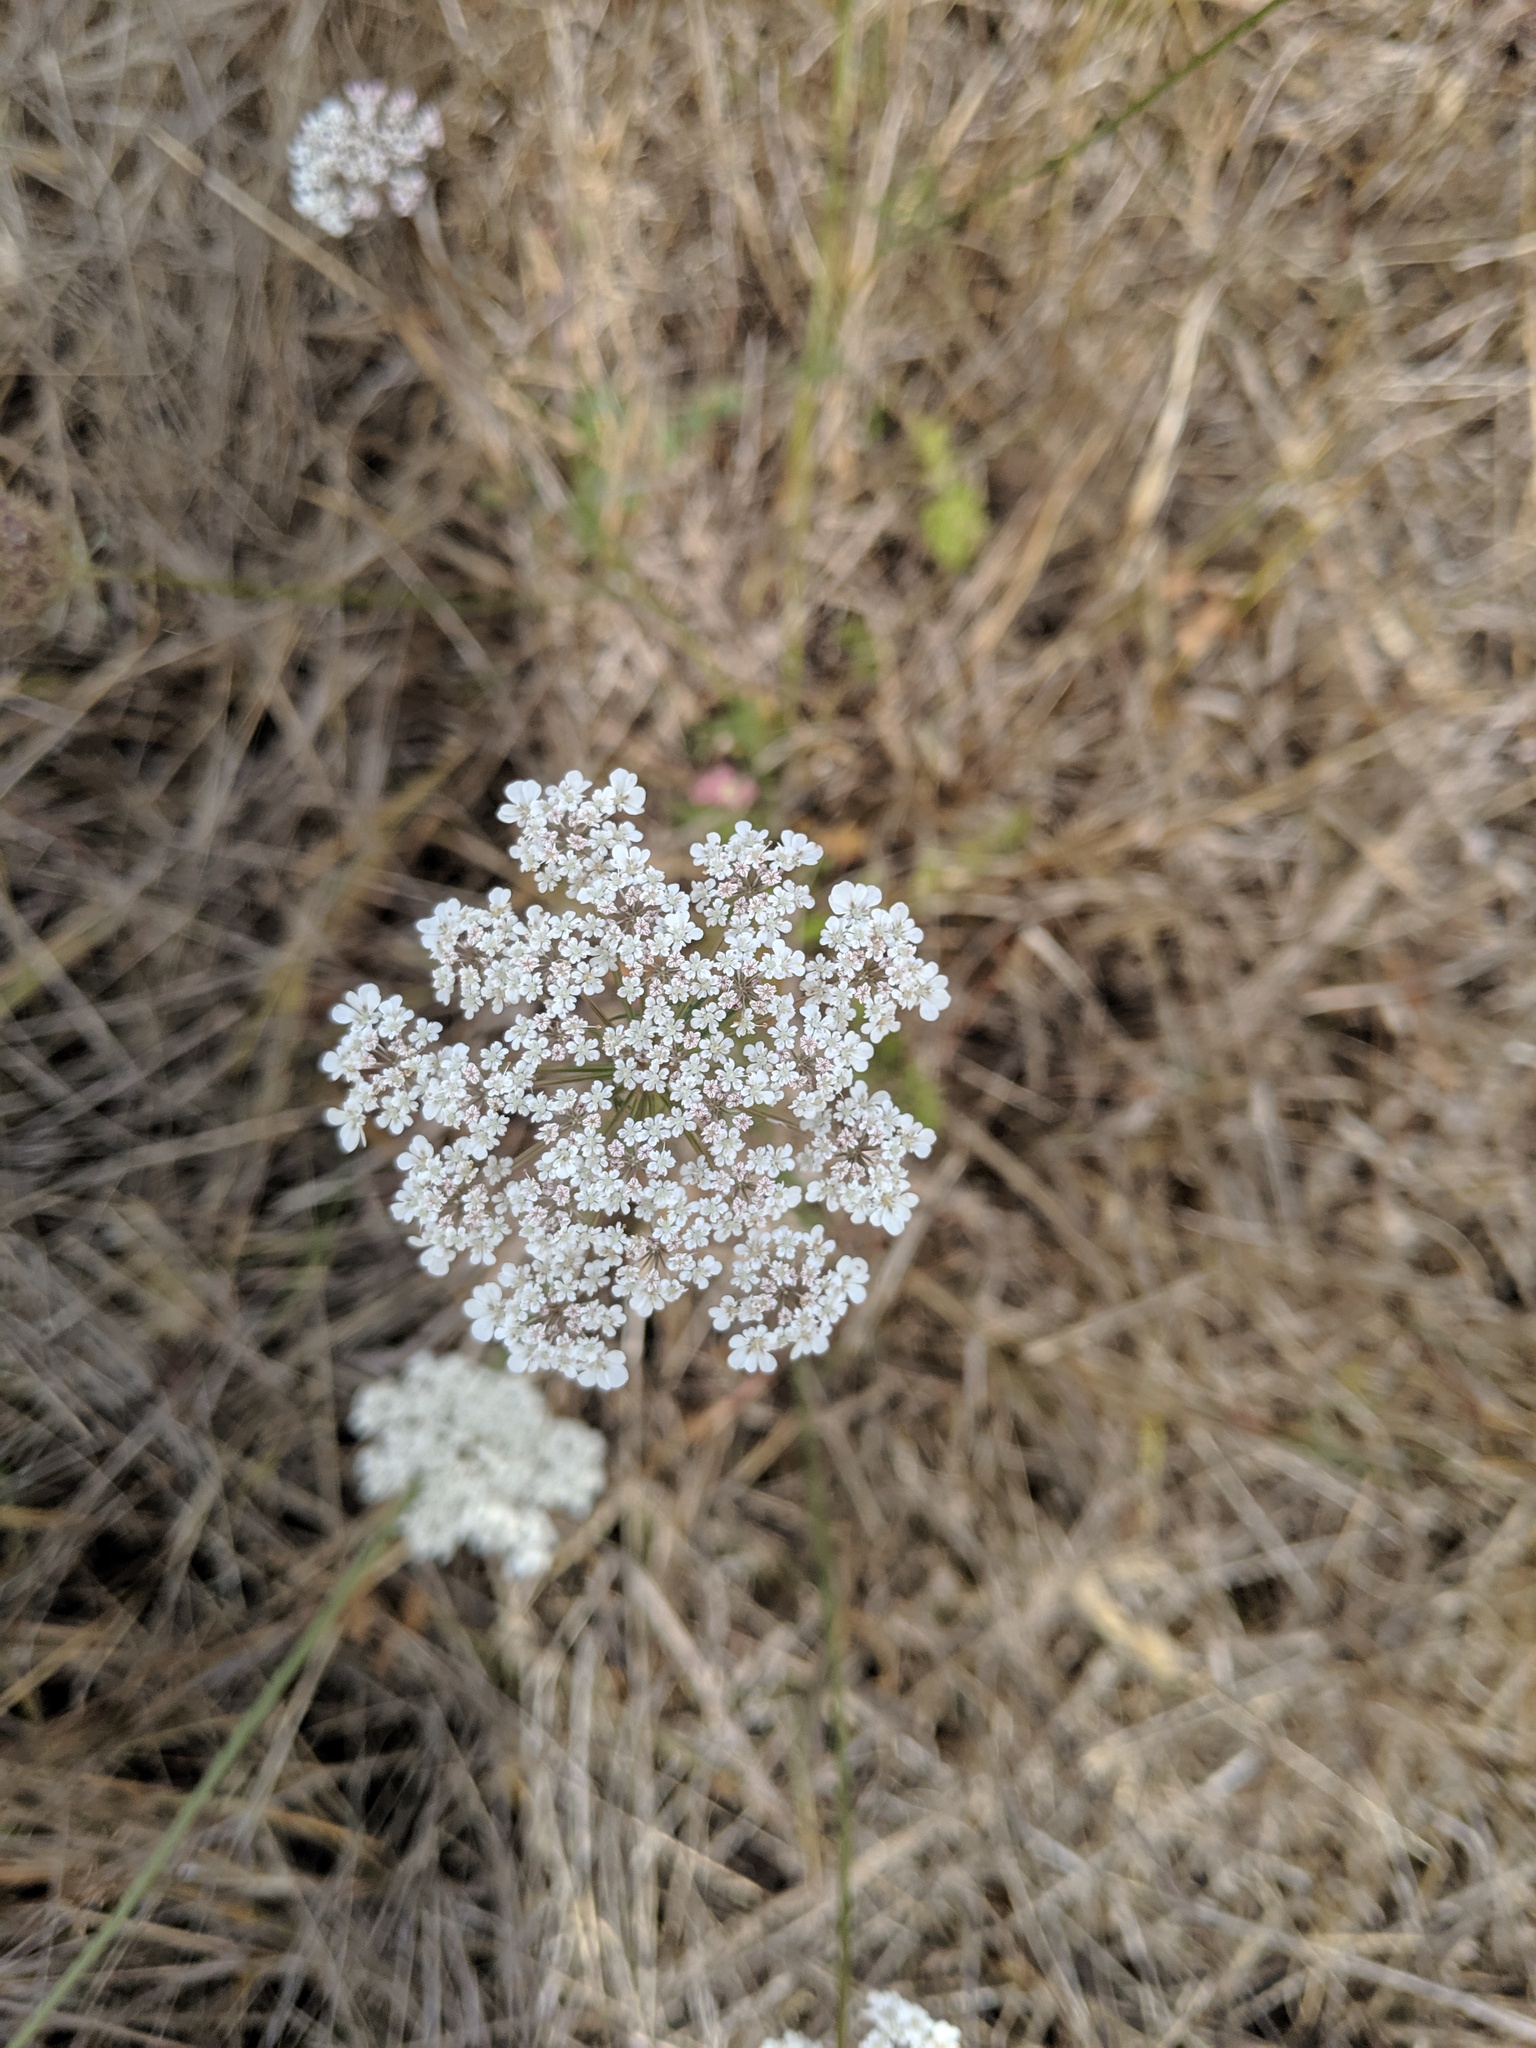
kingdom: Plantae
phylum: Tracheophyta
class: Magnoliopsida
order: Apiales
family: Apiaceae
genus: Daucus
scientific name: Daucus carota
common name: Wild carrot
